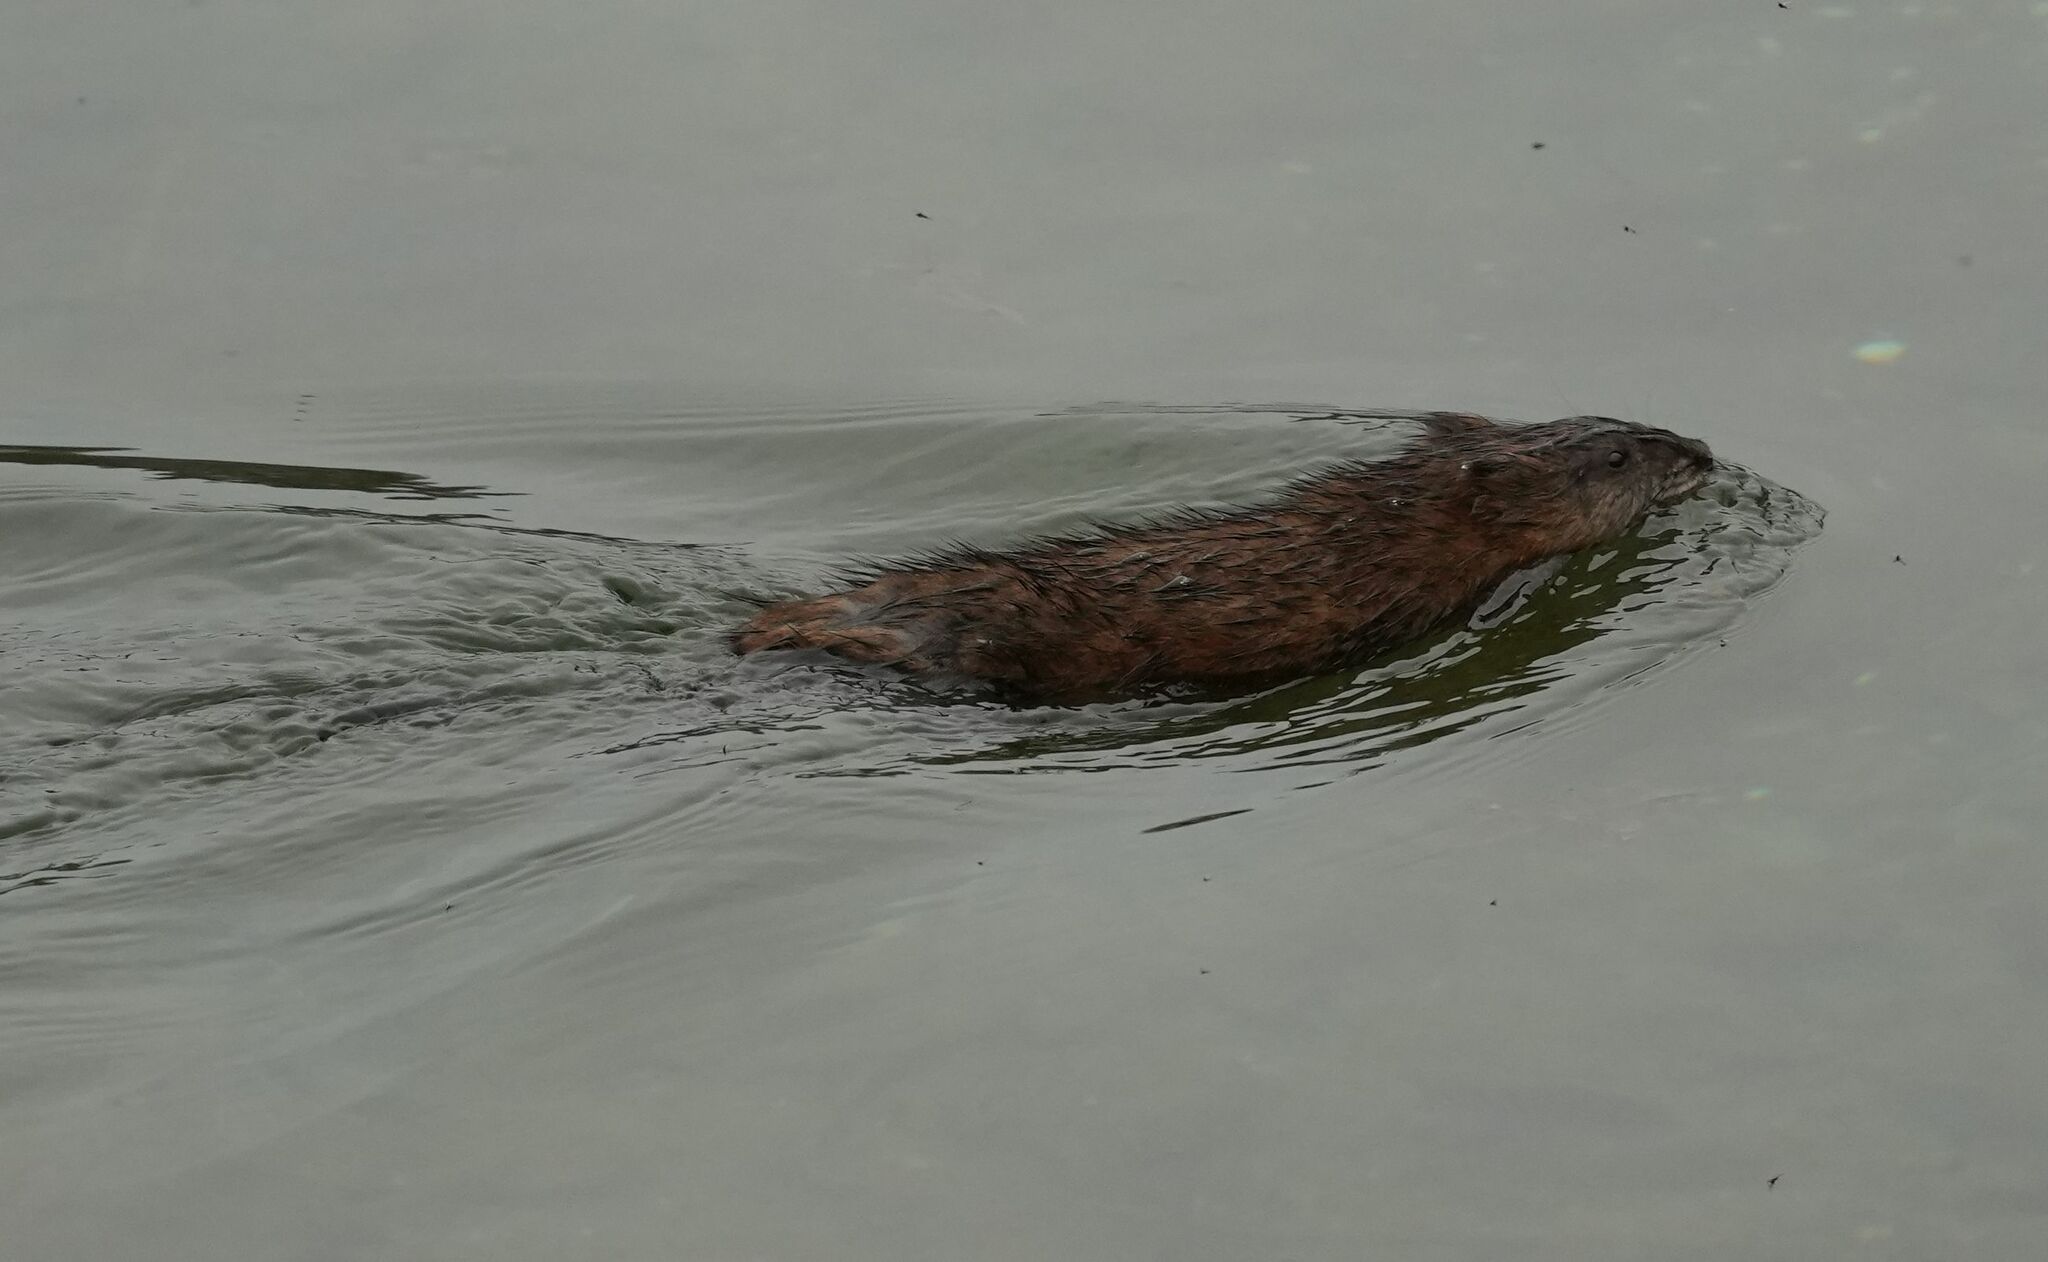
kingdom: Animalia
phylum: Chordata
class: Mammalia
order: Rodentia
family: Cricetidae
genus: Ondatra
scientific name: Ondatra zibethicus
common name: Muskrat
